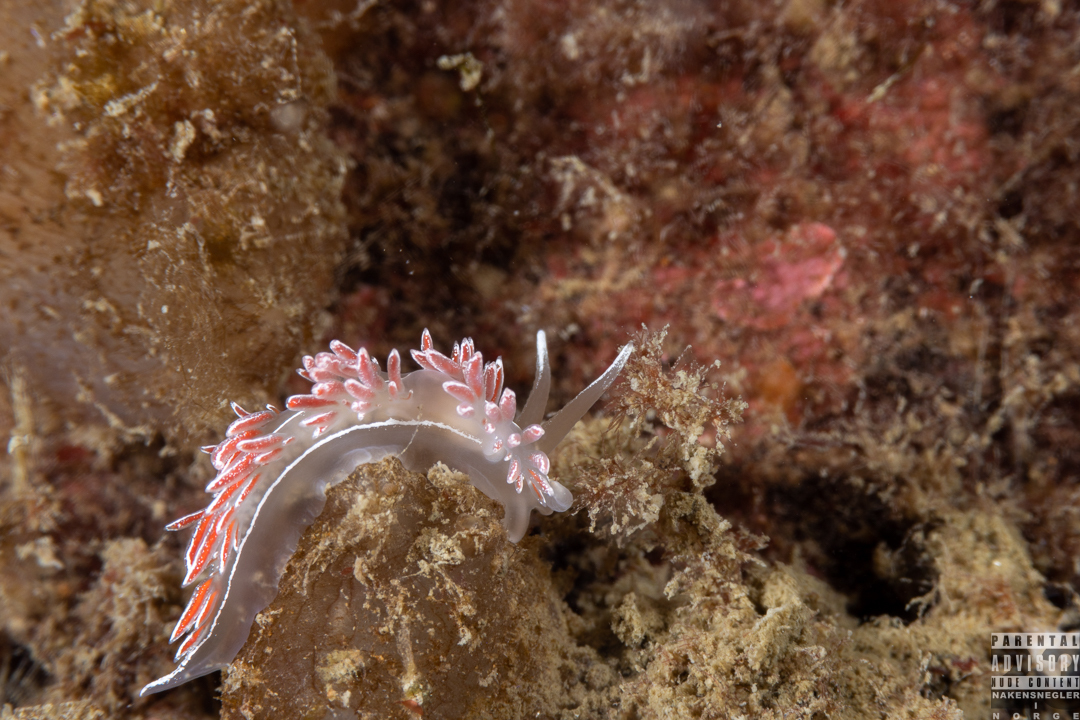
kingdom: Animalia
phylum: Mollusca
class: Gastropoda
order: Nudibranchia
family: Coryphellidae
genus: Coryphella
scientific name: Coryphella lineata
